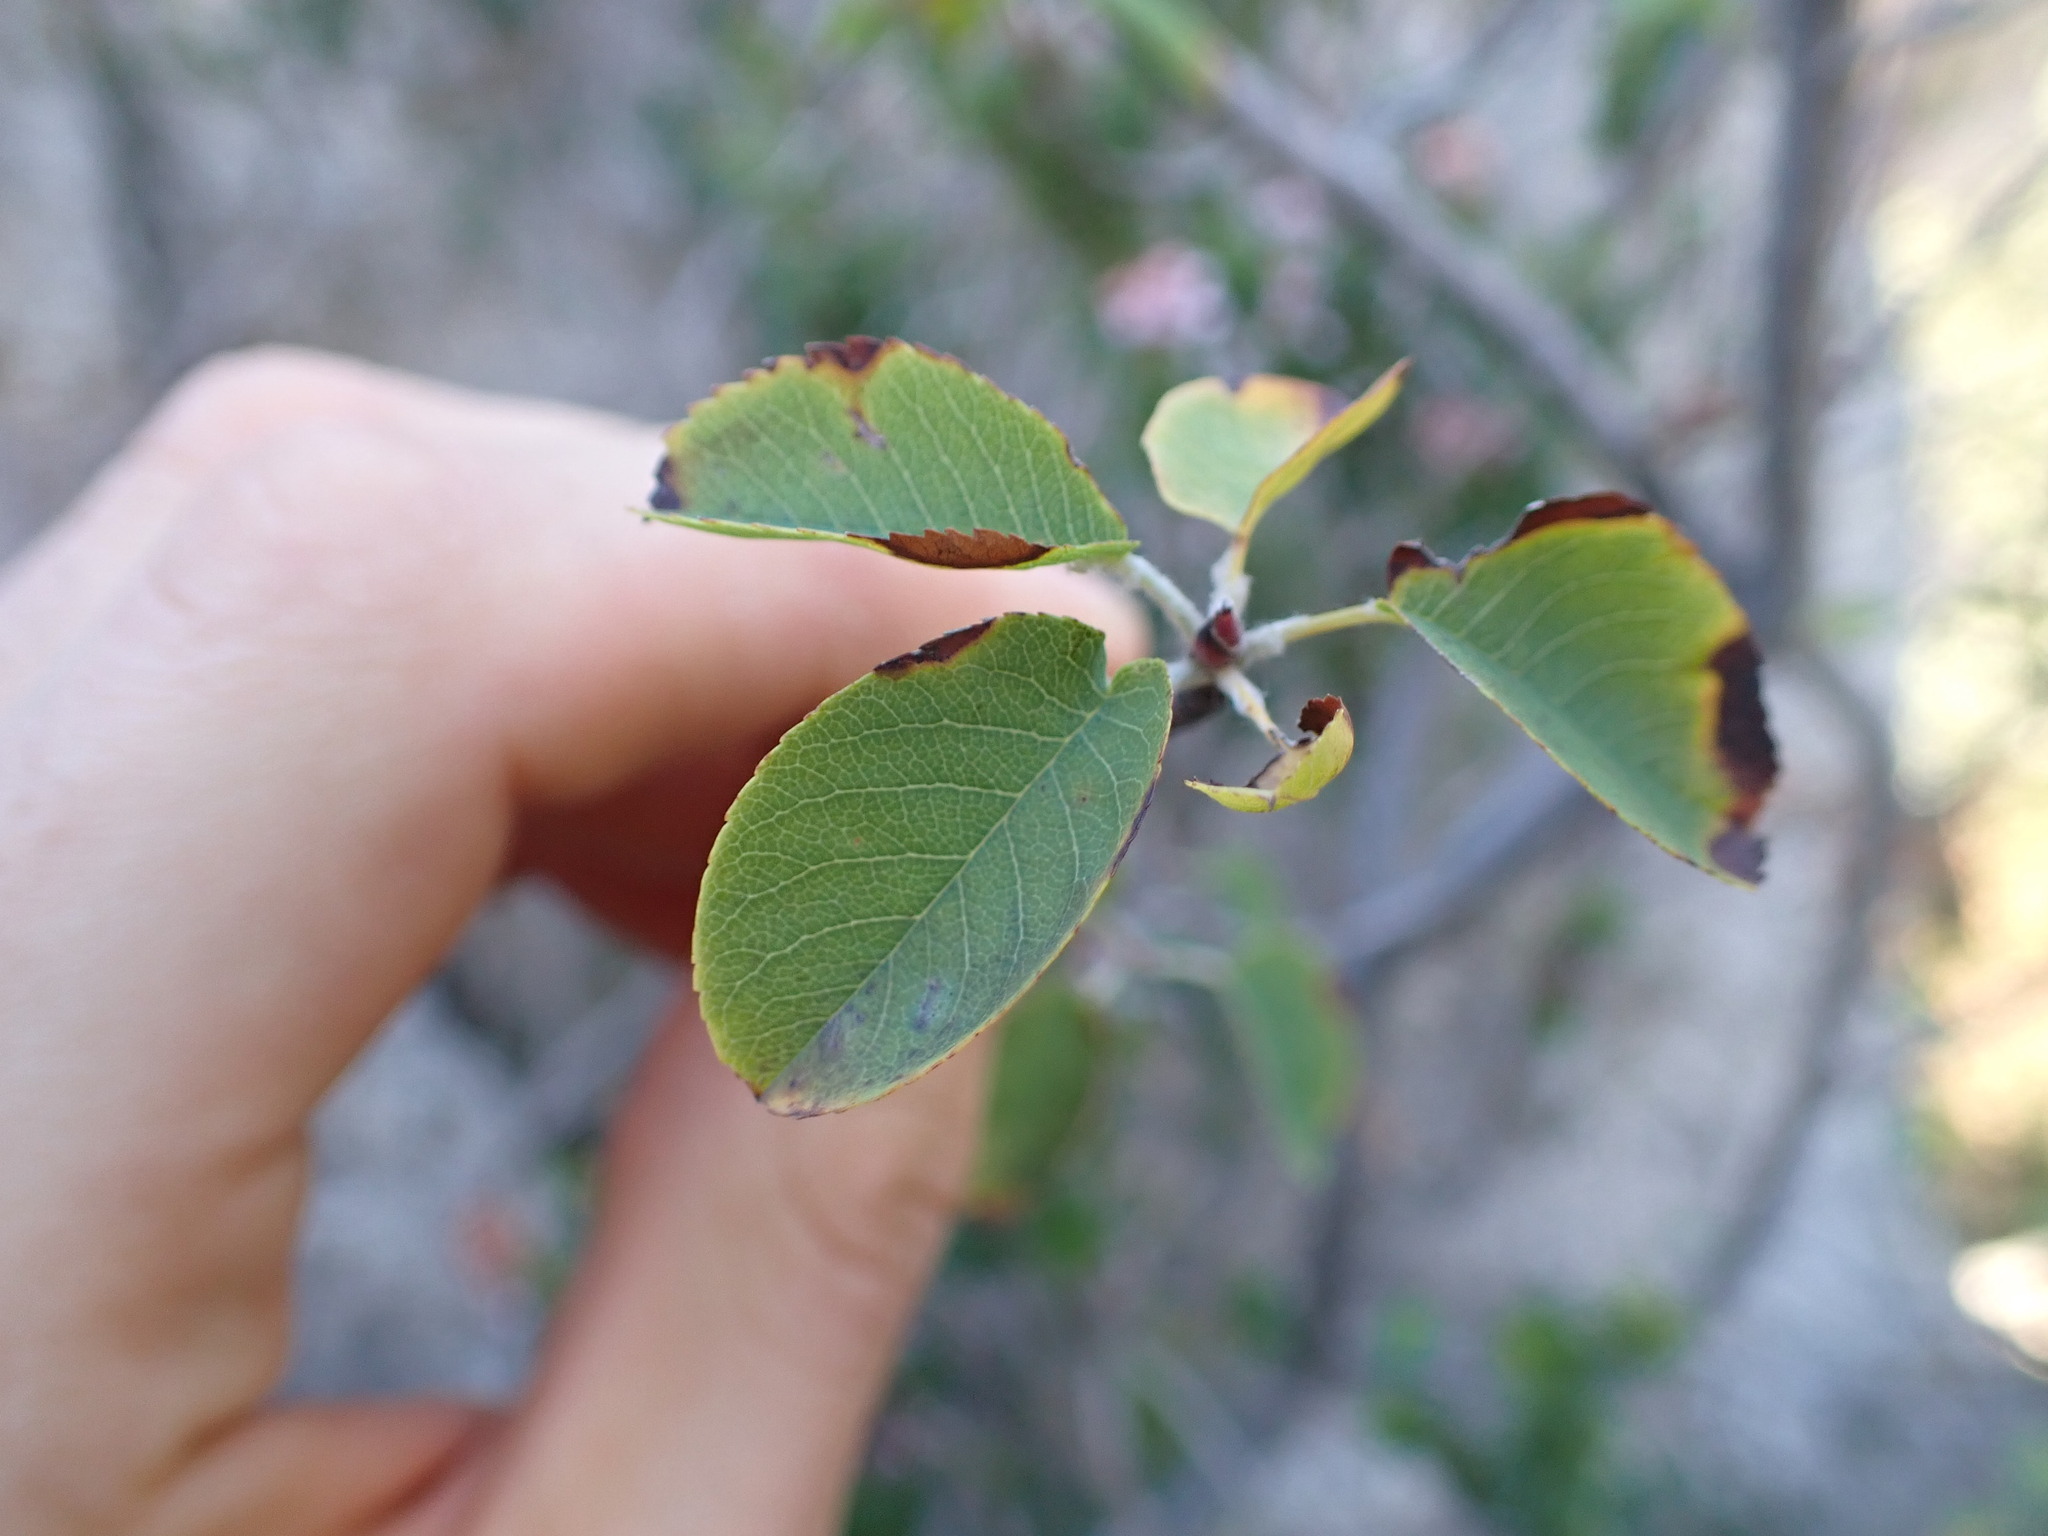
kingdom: Plantae
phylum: Tracheophyta
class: Magnoliopsida
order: Rosales
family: Rosaceae
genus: Amelanchier
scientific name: Amelanchier ovalis
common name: Serviceberry
